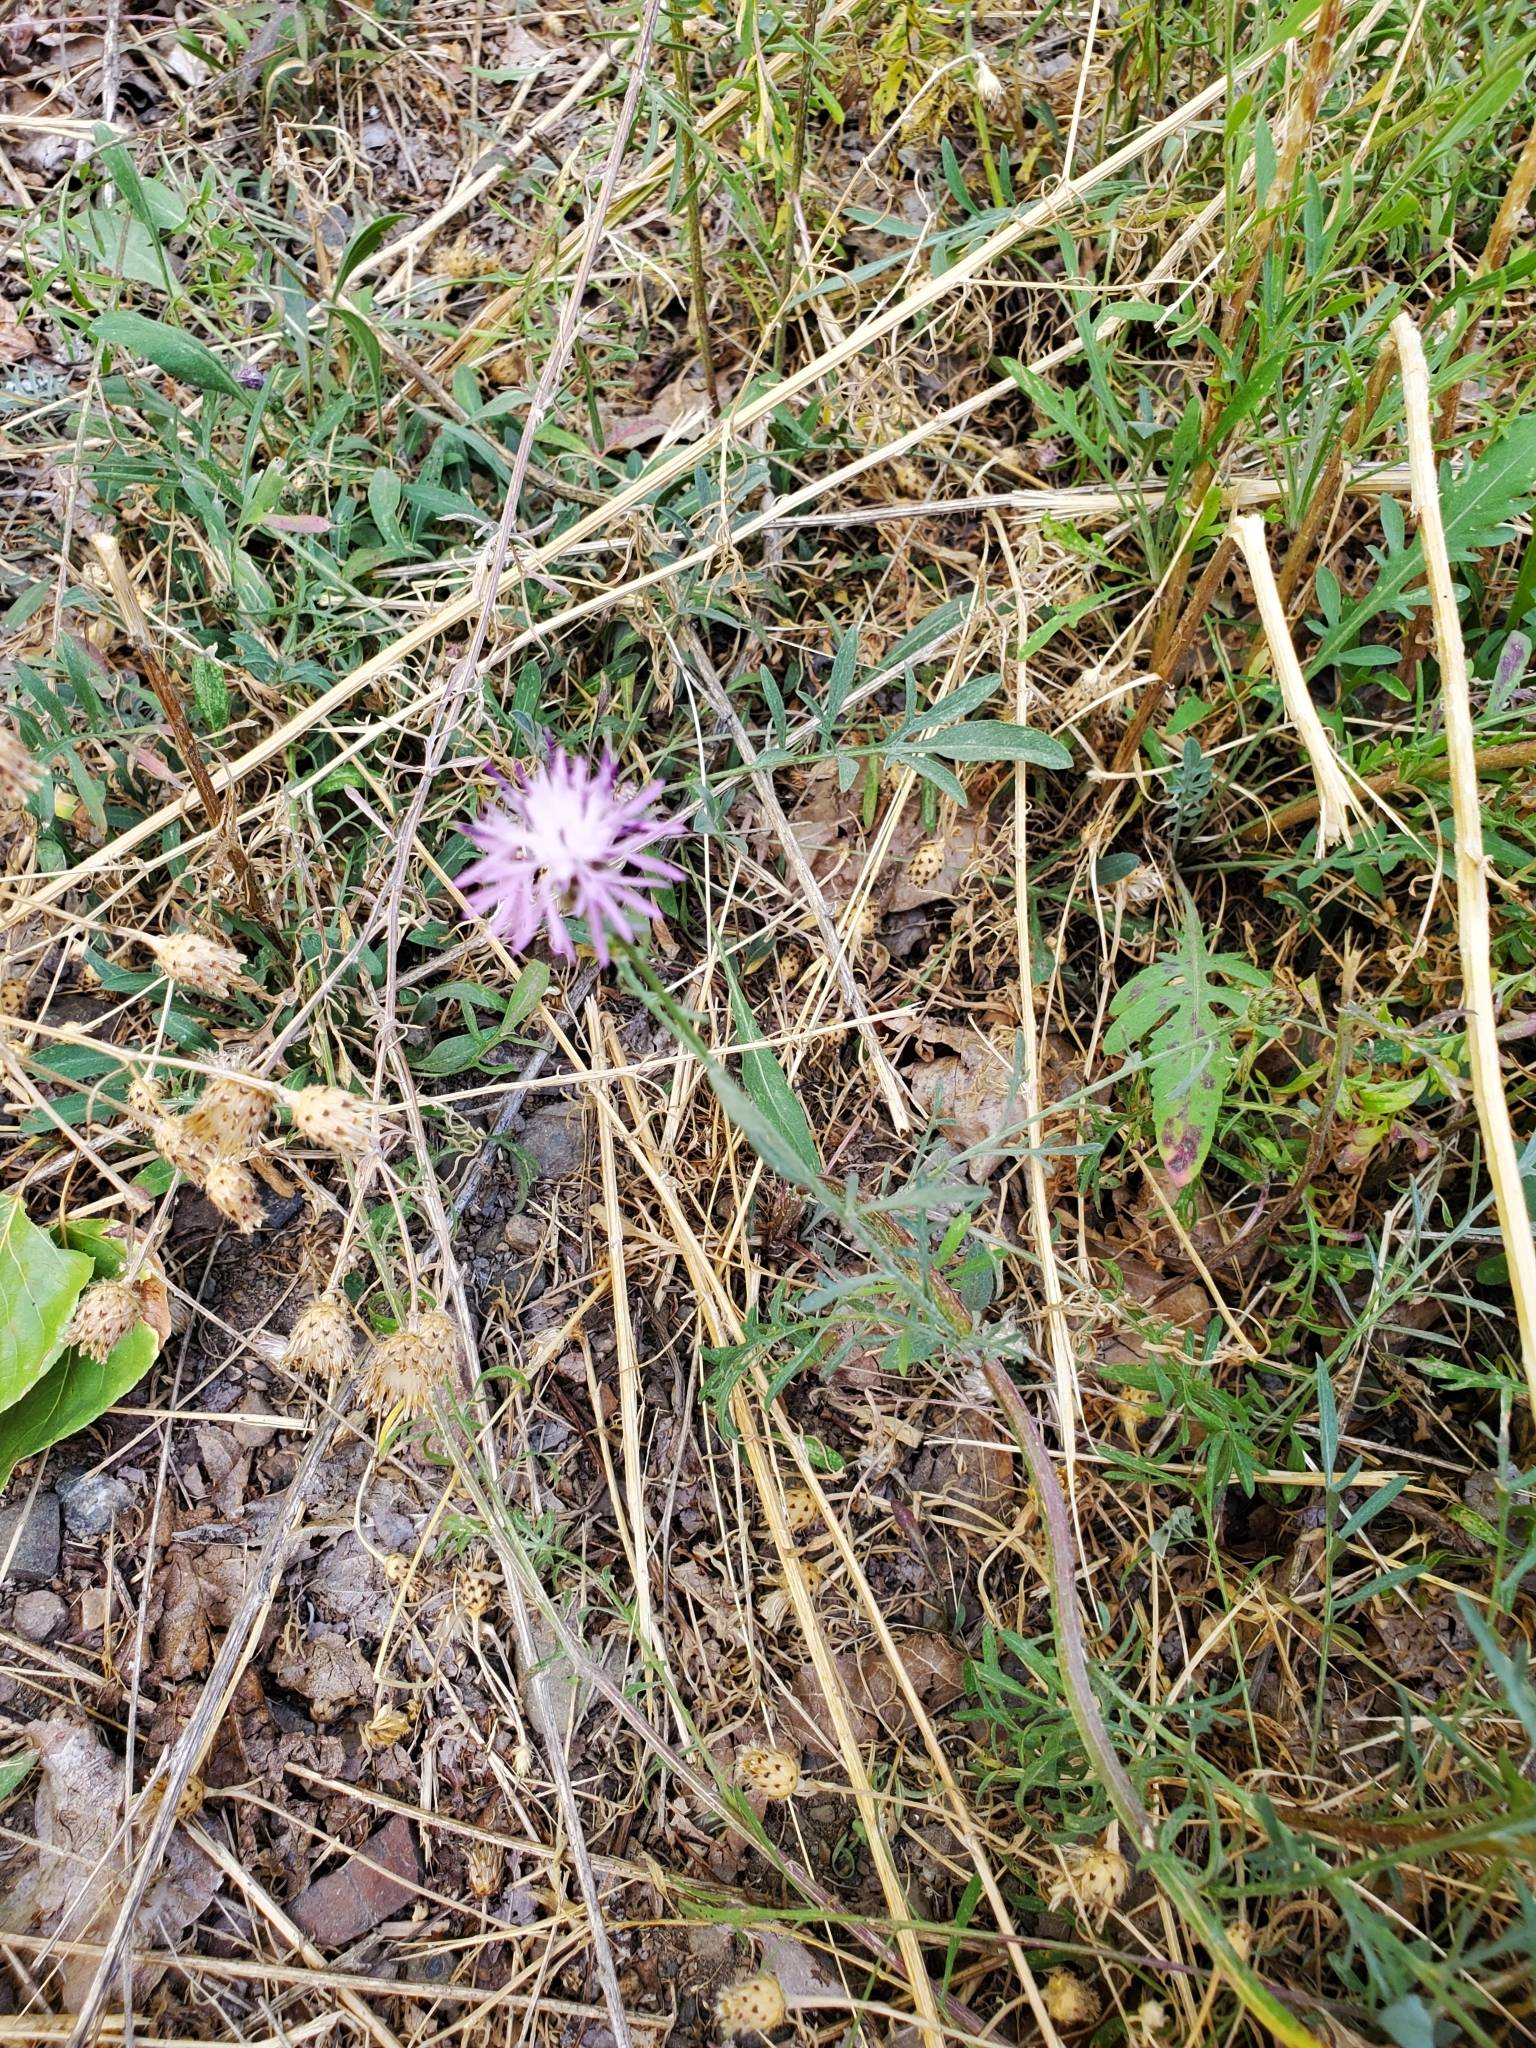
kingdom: Plantae
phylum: Tracheophyta
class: Magnoliopsida
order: Asterales
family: Asteraceae
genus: Centaurea
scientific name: Centaurea stoebe
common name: Spotted knapweed
